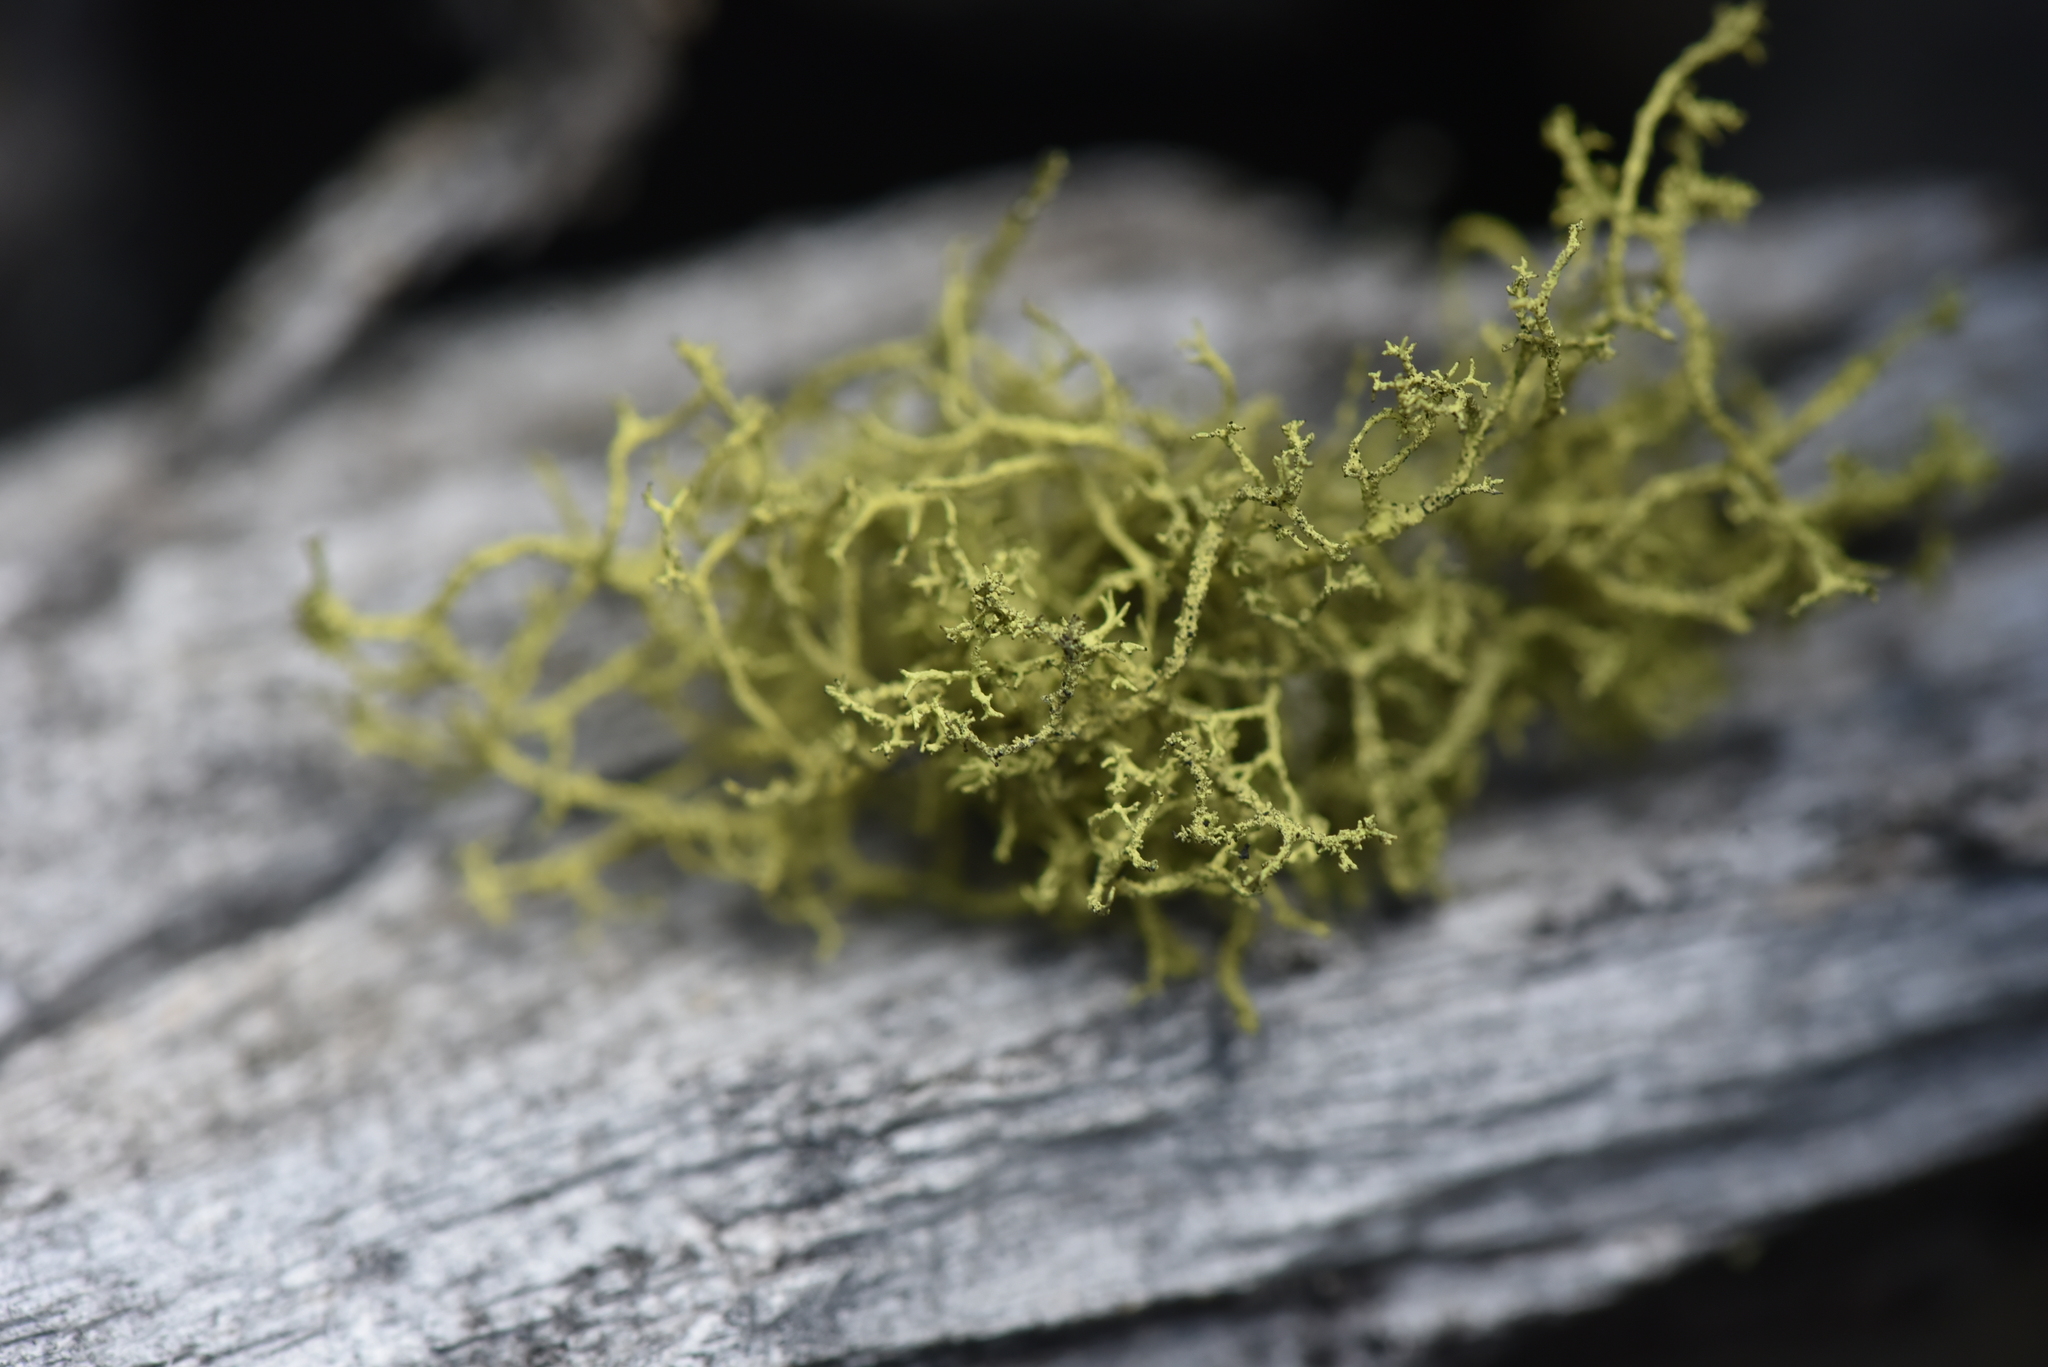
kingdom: Fungi
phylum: Ascomycota
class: Lecanoromycetes
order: Lecanorales
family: Parmeliaceae
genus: Letharia
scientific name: Letharia vulpina
